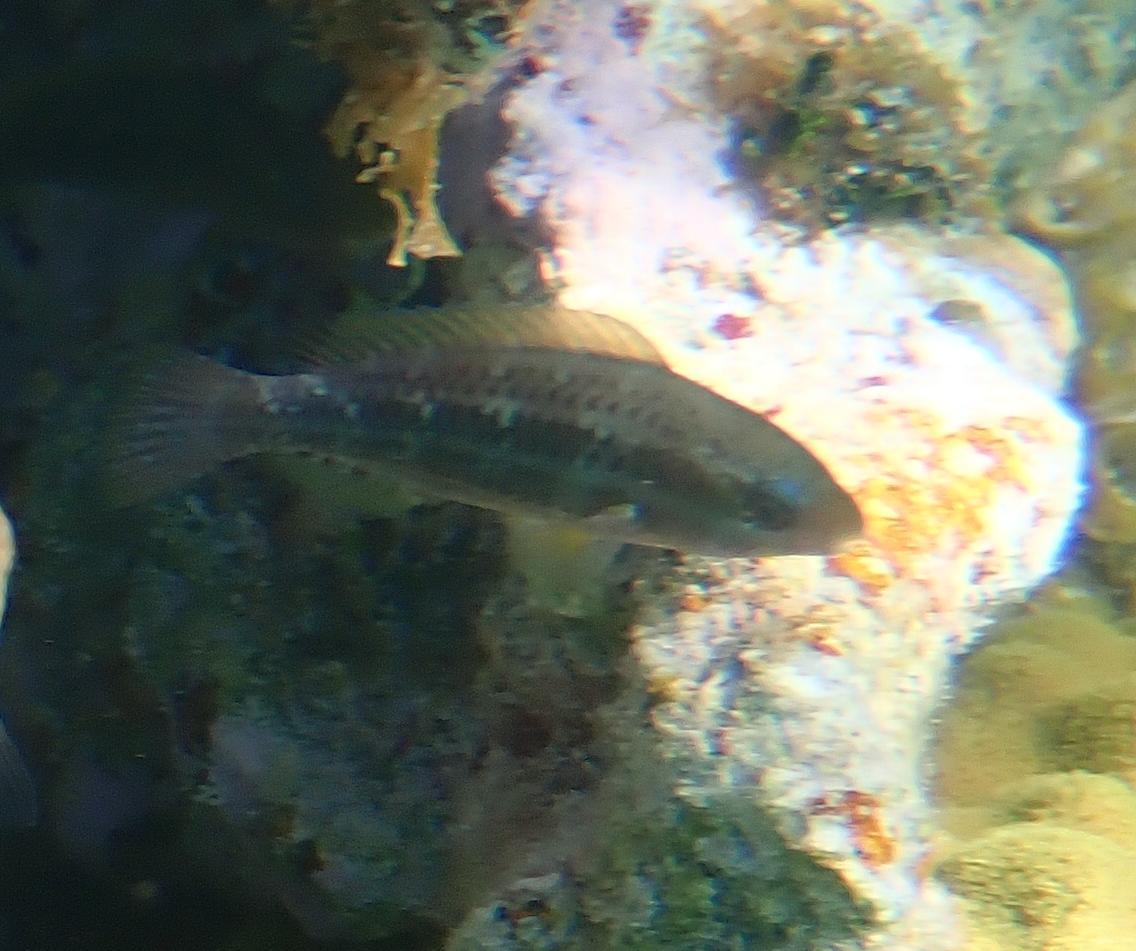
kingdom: Animalia
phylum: Chordata
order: Perciformes
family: Scaridae
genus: Scarus
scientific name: Scarus iseri
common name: Striped parrotfish
